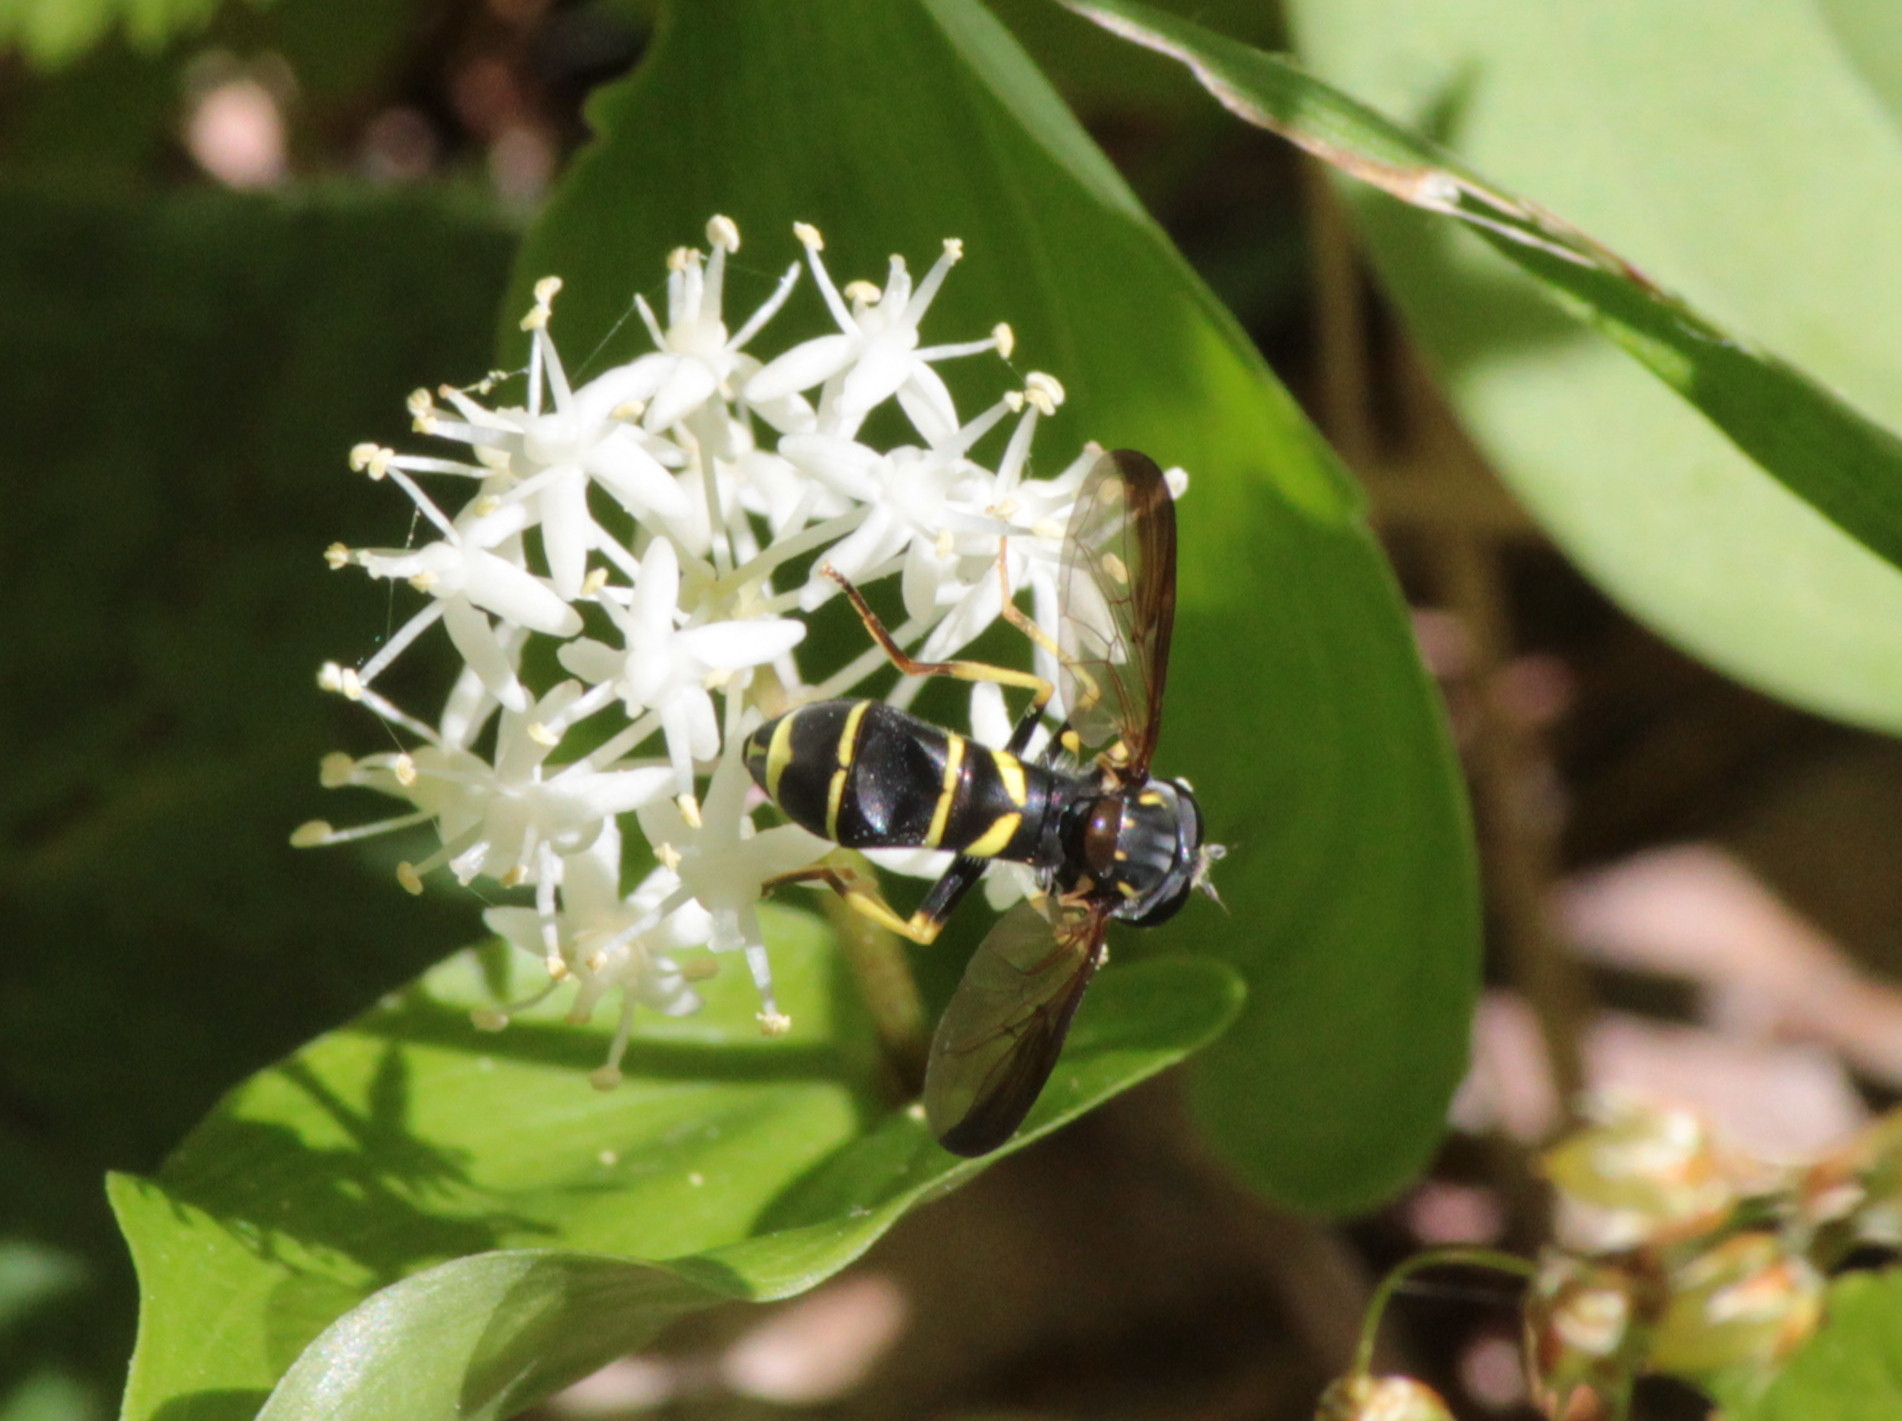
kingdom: Animalia
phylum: Arthropoda
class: Insecta
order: Diptera
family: Syrphidae
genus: Doros
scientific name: Doros aequalis
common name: Canadian potter fly
